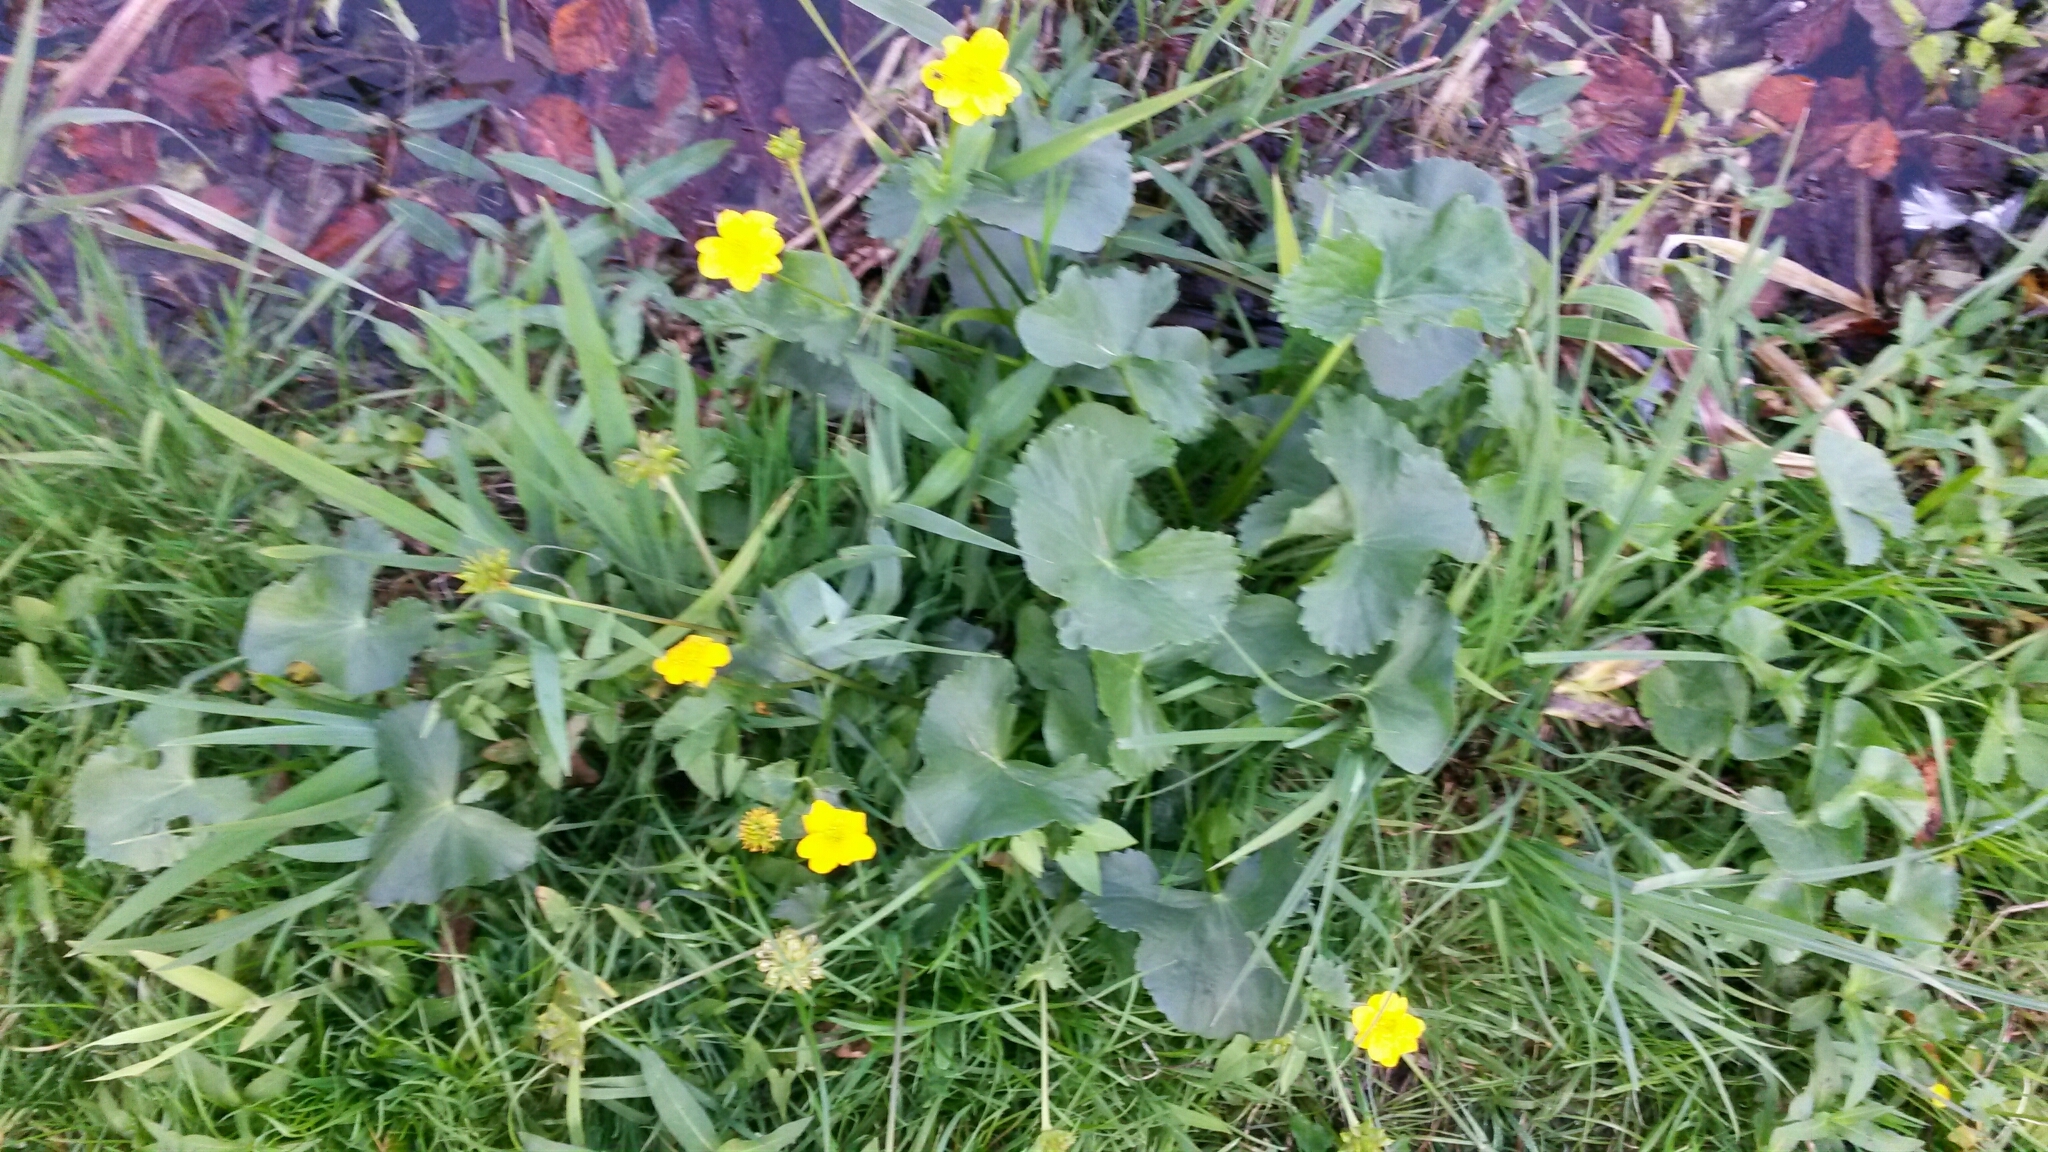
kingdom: Plantae
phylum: Tracheophyta
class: Magnoliopsida
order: Ranunculales
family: Ranunculaceae
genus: Caltha
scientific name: Caltha palustris
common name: Marsh marigold
